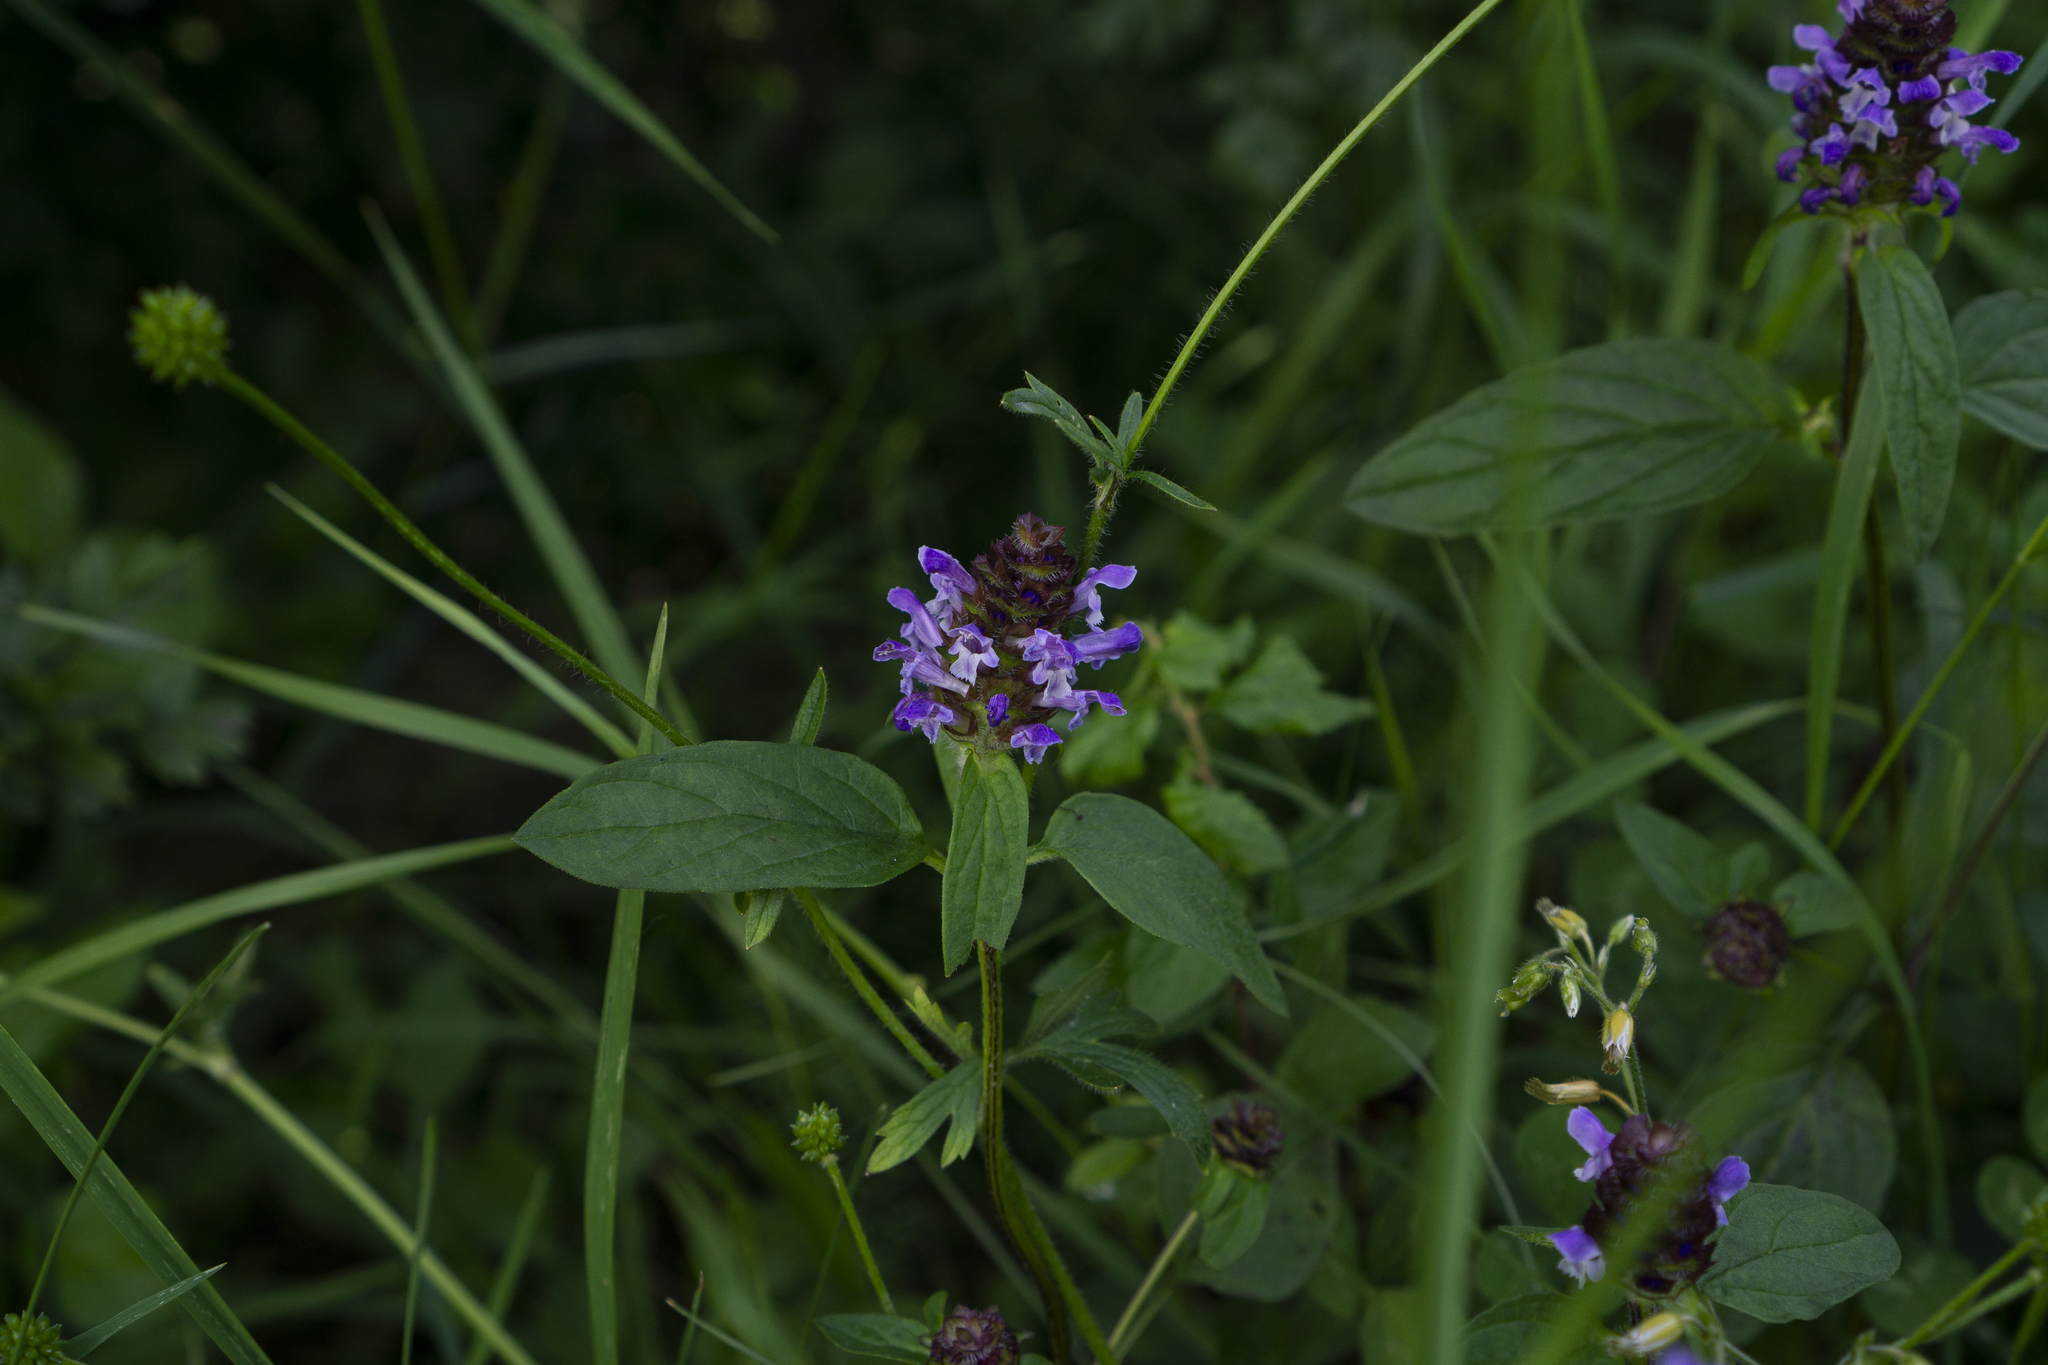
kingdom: Plantae
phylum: Tracheophyta
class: Magnoliopsida
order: Lamiales
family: Lamiaceae
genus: Prunella
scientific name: Prunella vulgaris
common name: Heal-all
